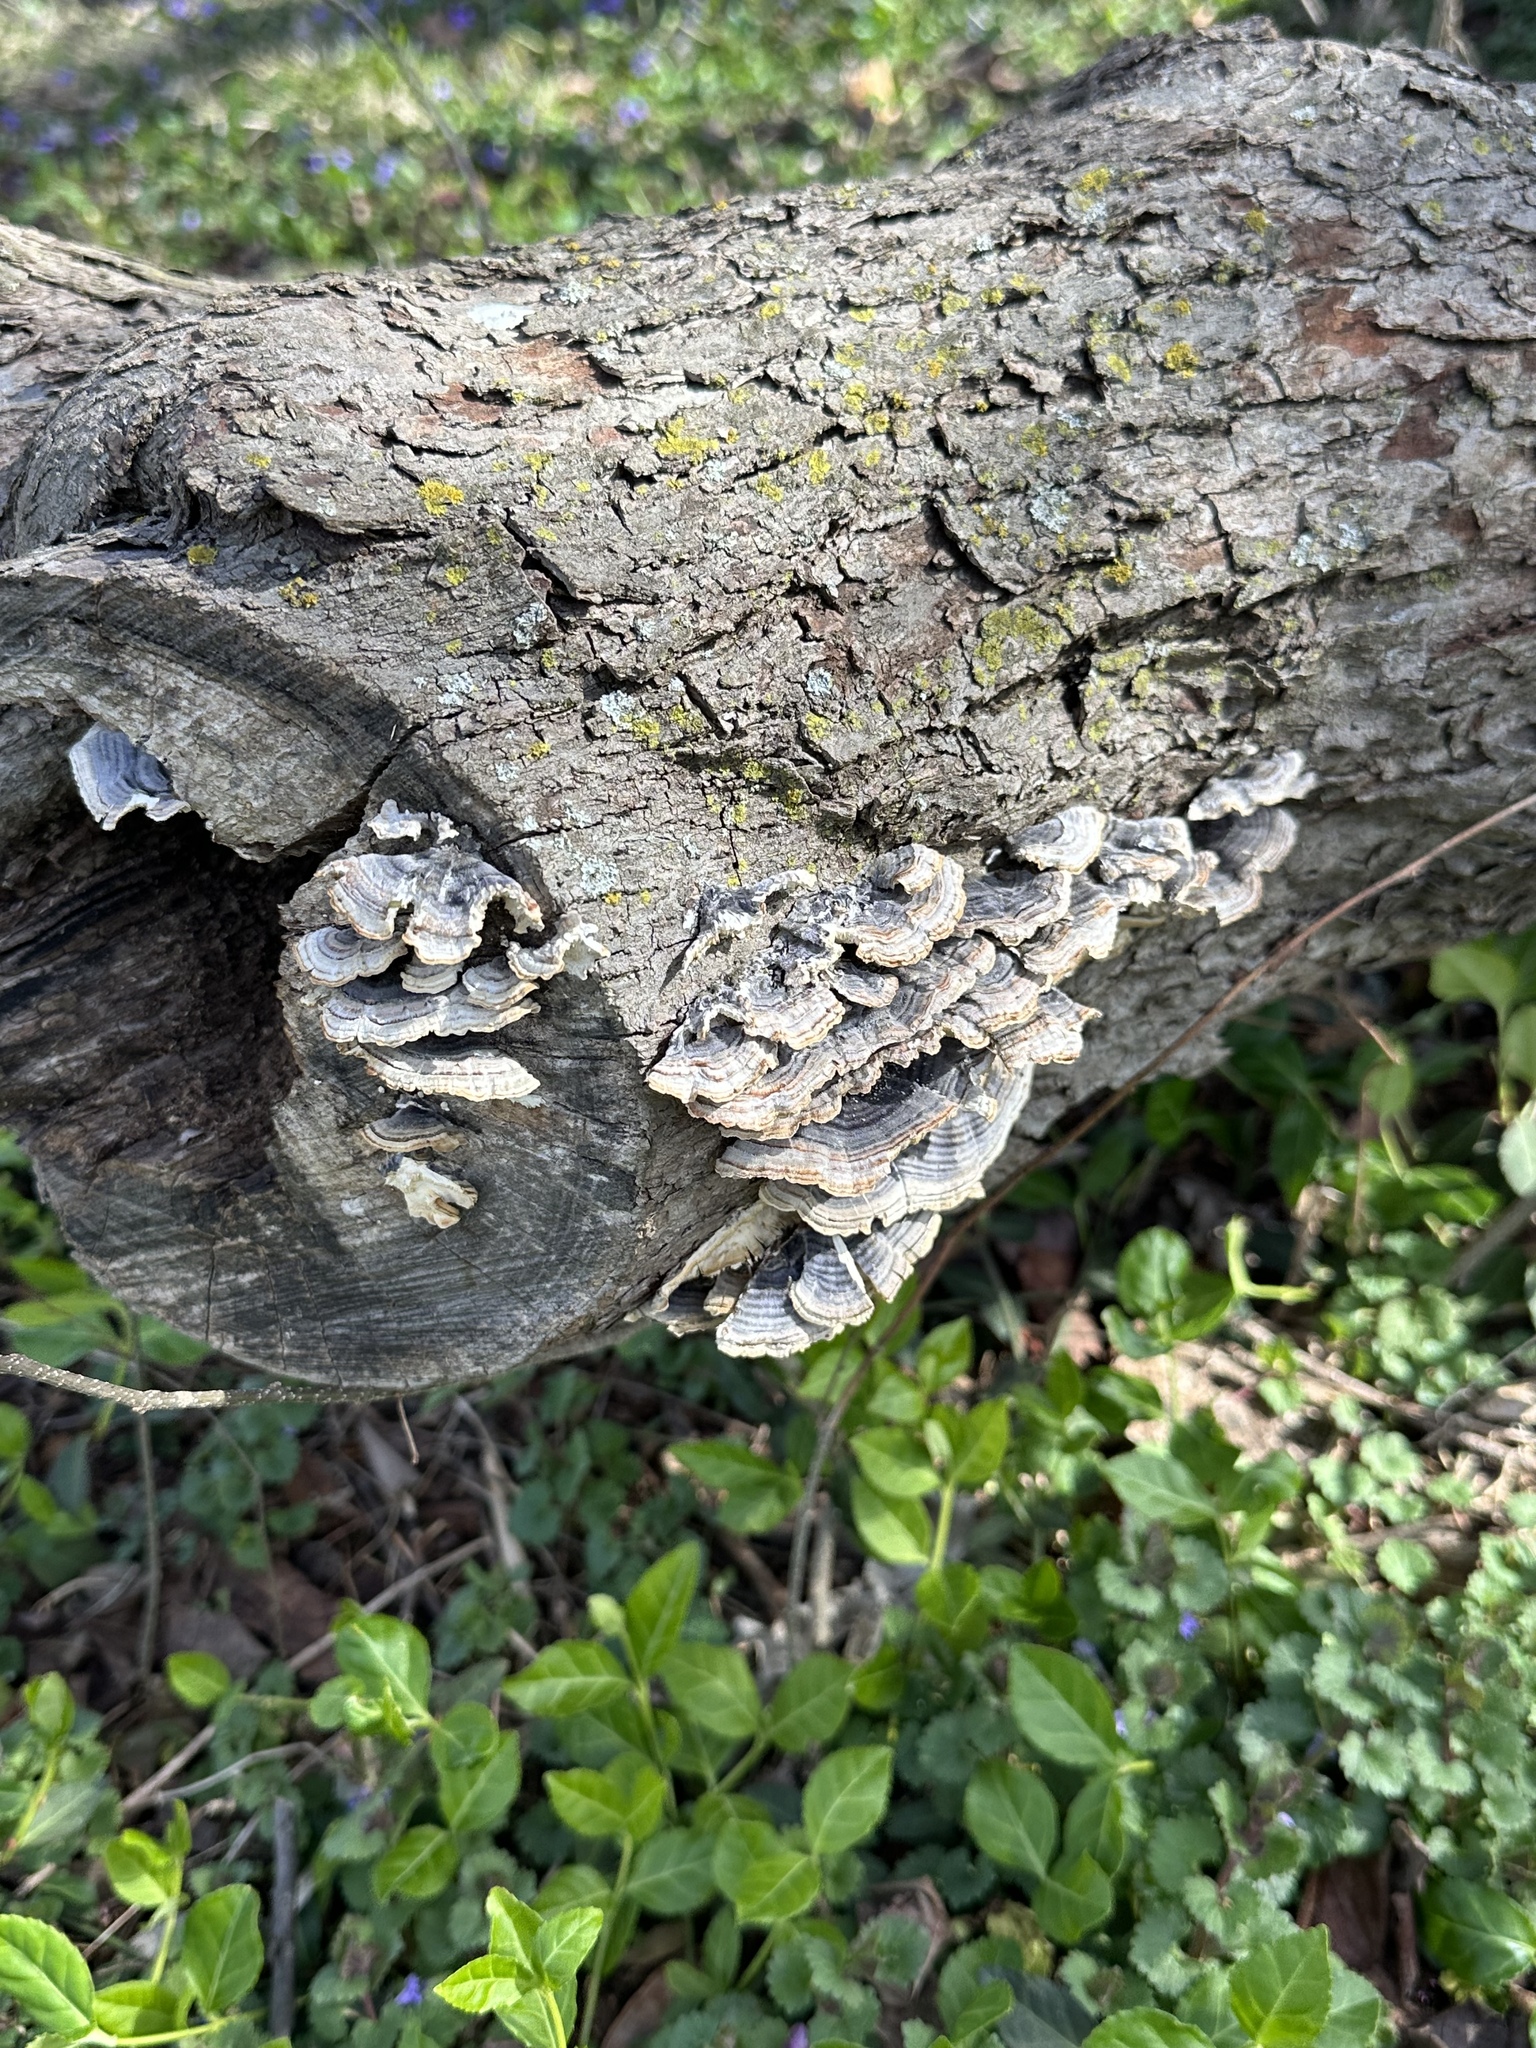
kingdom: Fungi
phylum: Basidiomycota
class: Agaricomycetes
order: Polyporales
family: Polyporaceae
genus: Trametes
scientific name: Trametes versicolor
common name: Turkeytail
